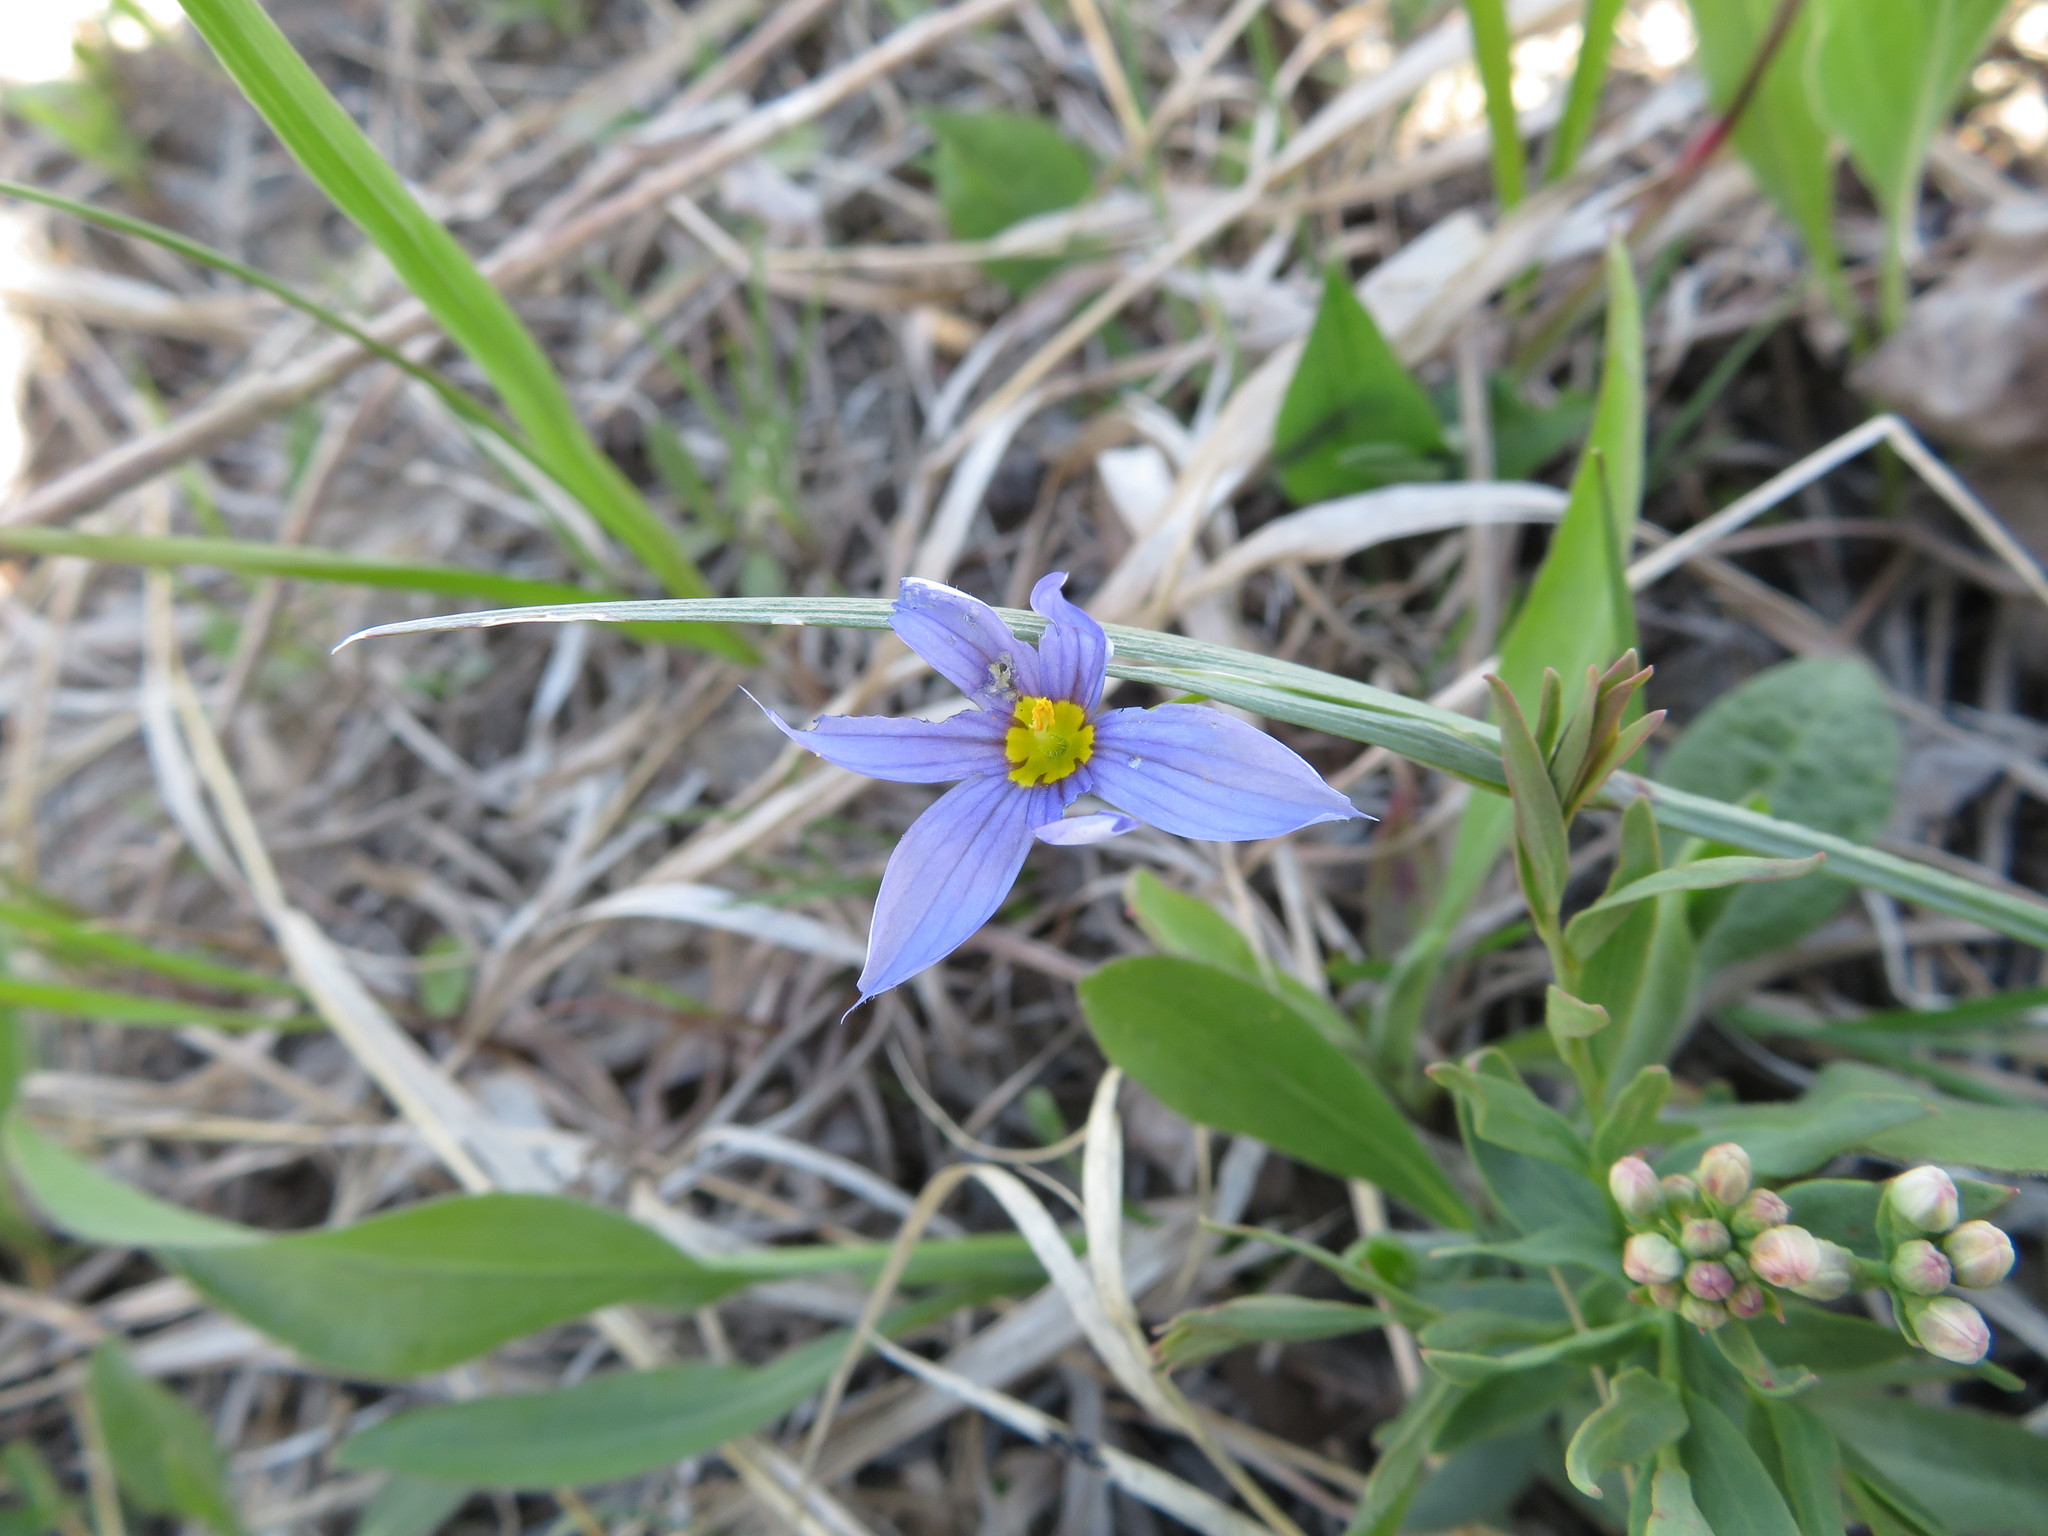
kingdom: Plantae
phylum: Tracheophyta
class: Liliopsida
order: Asparagales
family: Iridaceae
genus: Sisyrinchium
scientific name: Sisyrinchium montanum
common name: American blue-eyed-grass
